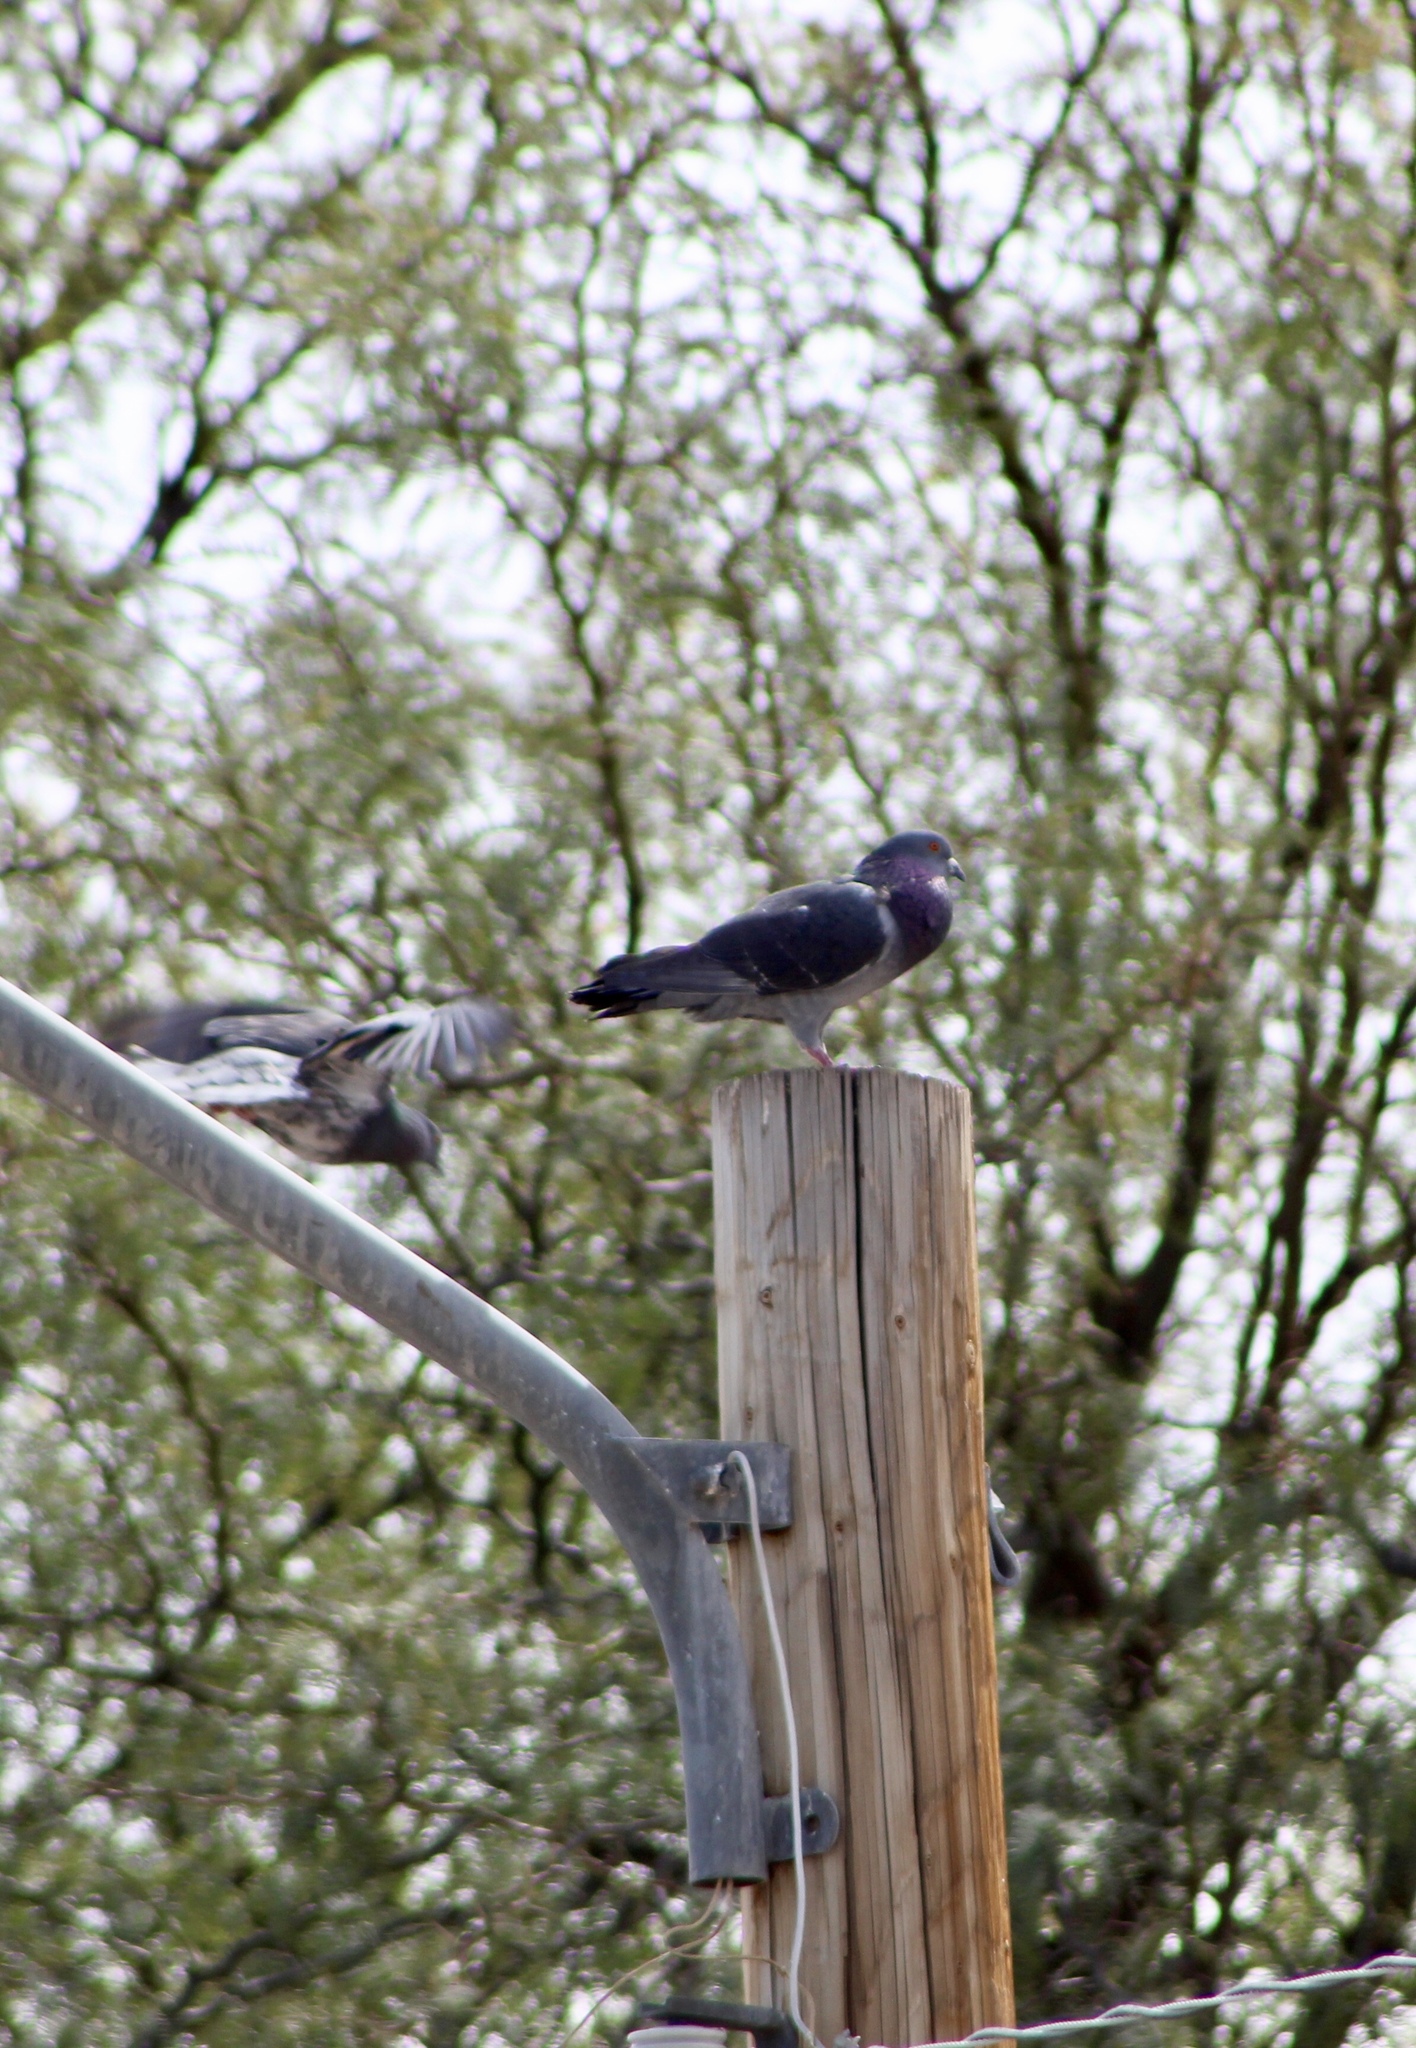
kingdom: Animalia
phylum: Chordata
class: Aves
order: Columbiformes
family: Columbidae
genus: Columba
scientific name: Columba livia
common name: Rock pigeon
